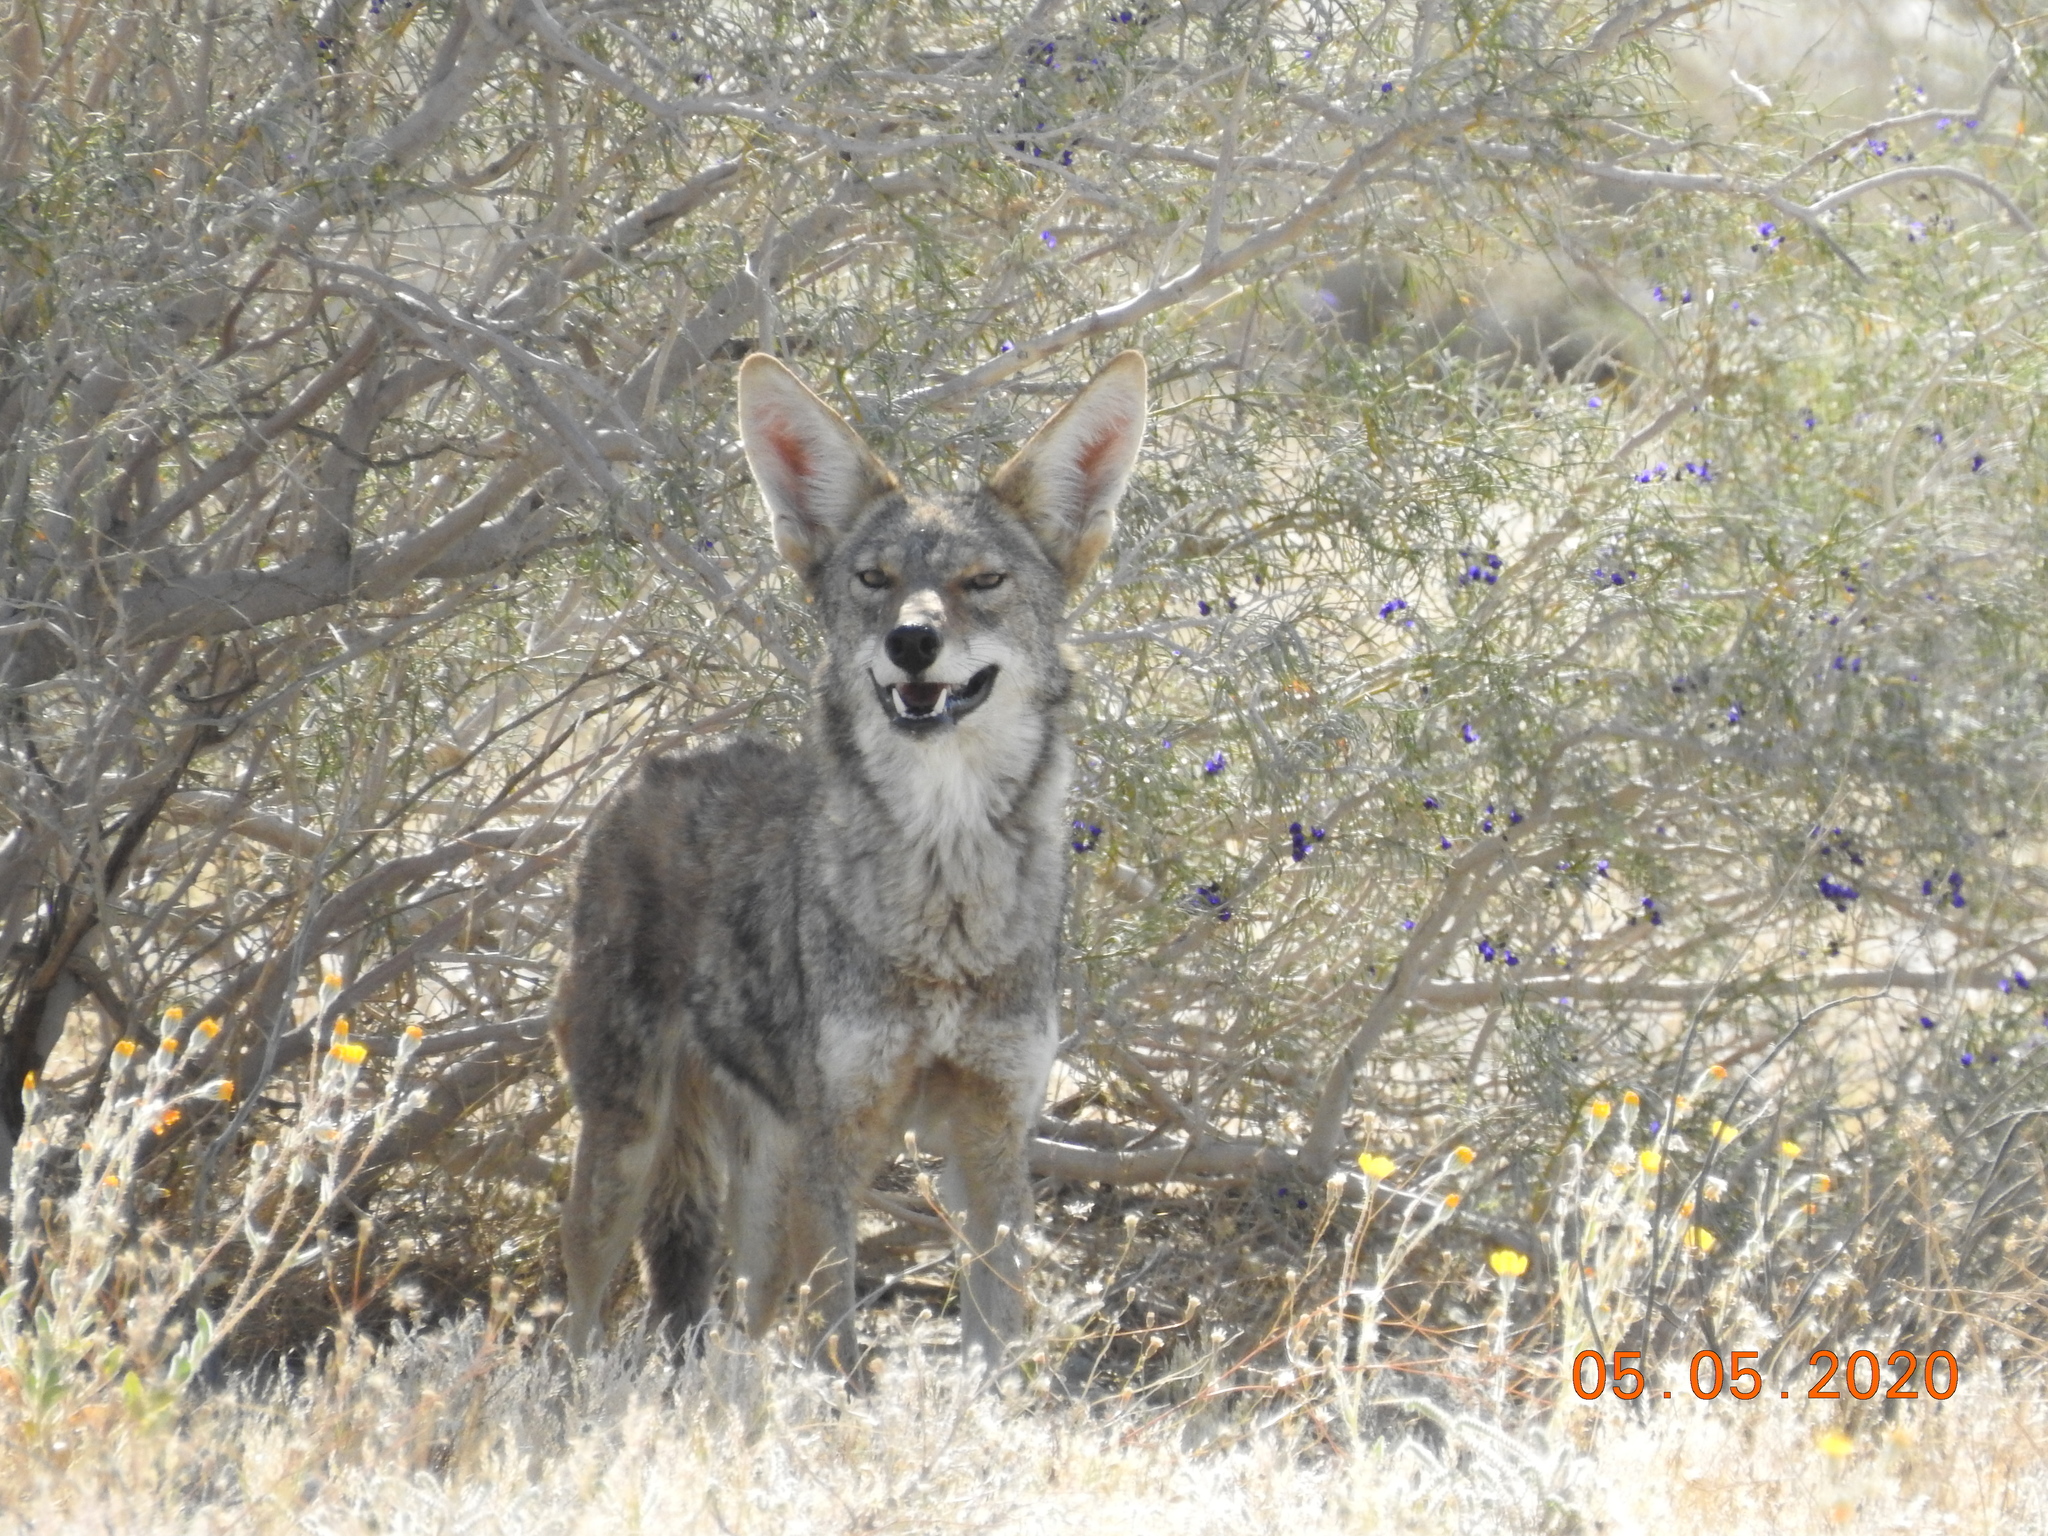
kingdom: Animalia
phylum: Chordata
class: Mammalia
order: Carnivora
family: Canidae
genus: Canis
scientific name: Canis latrans
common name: Coyote
